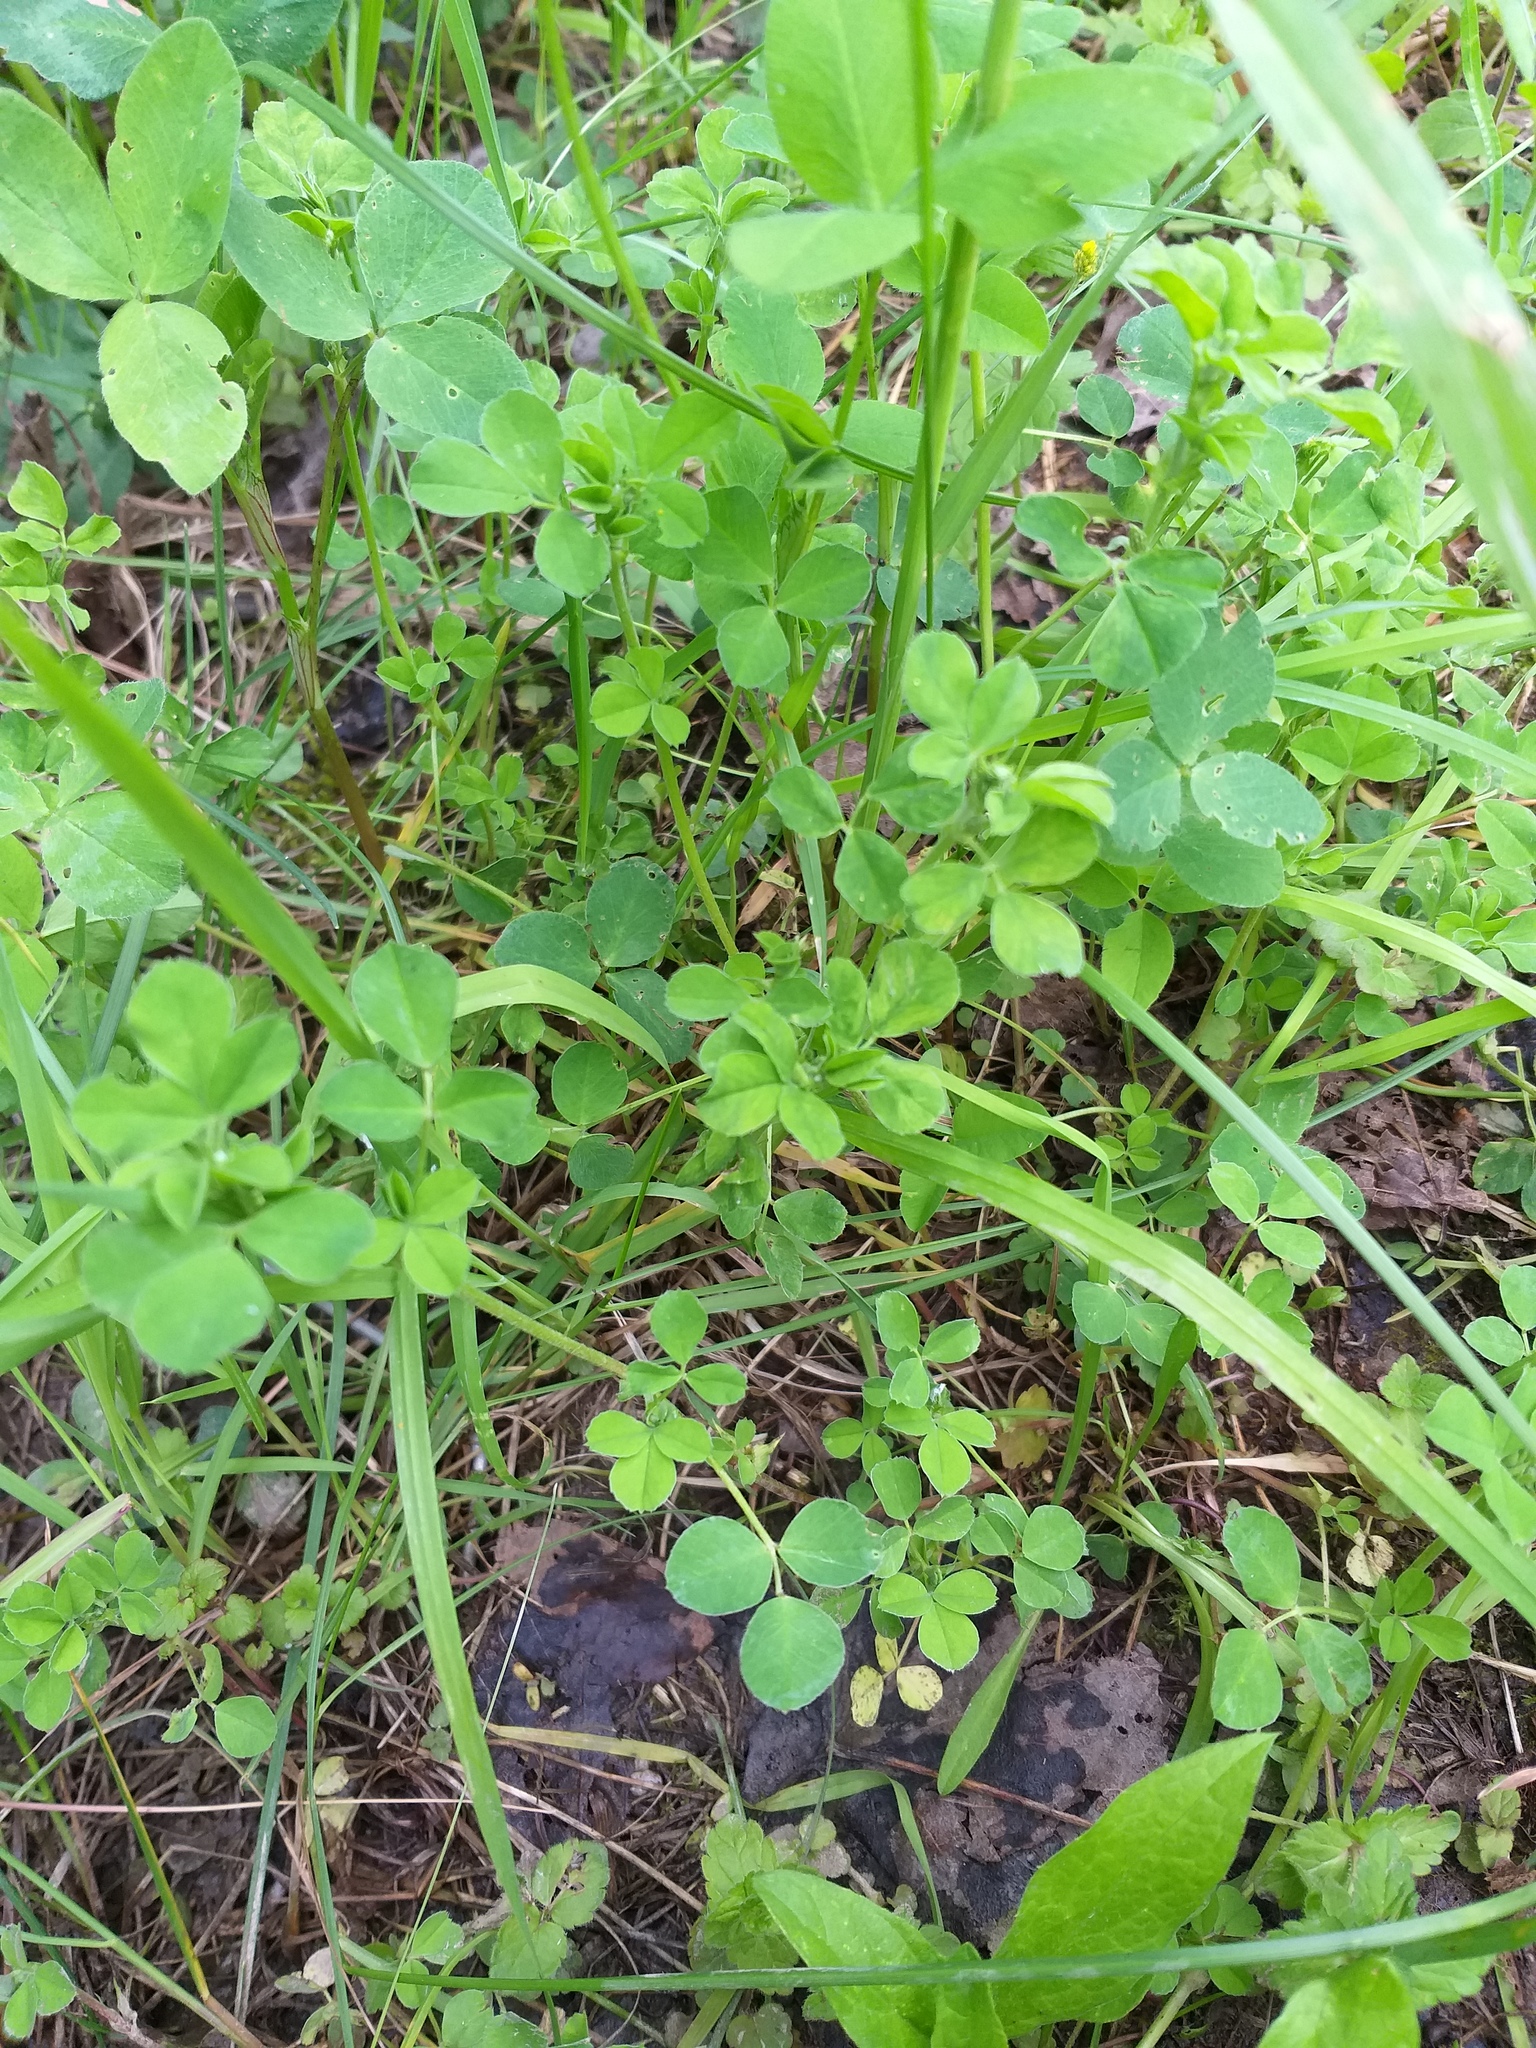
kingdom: Plantae
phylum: Tracheophyta
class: Magnoliopsida
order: Fabales
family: Fabaceae
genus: Medicago
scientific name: Medicago lupulina
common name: Black medick
